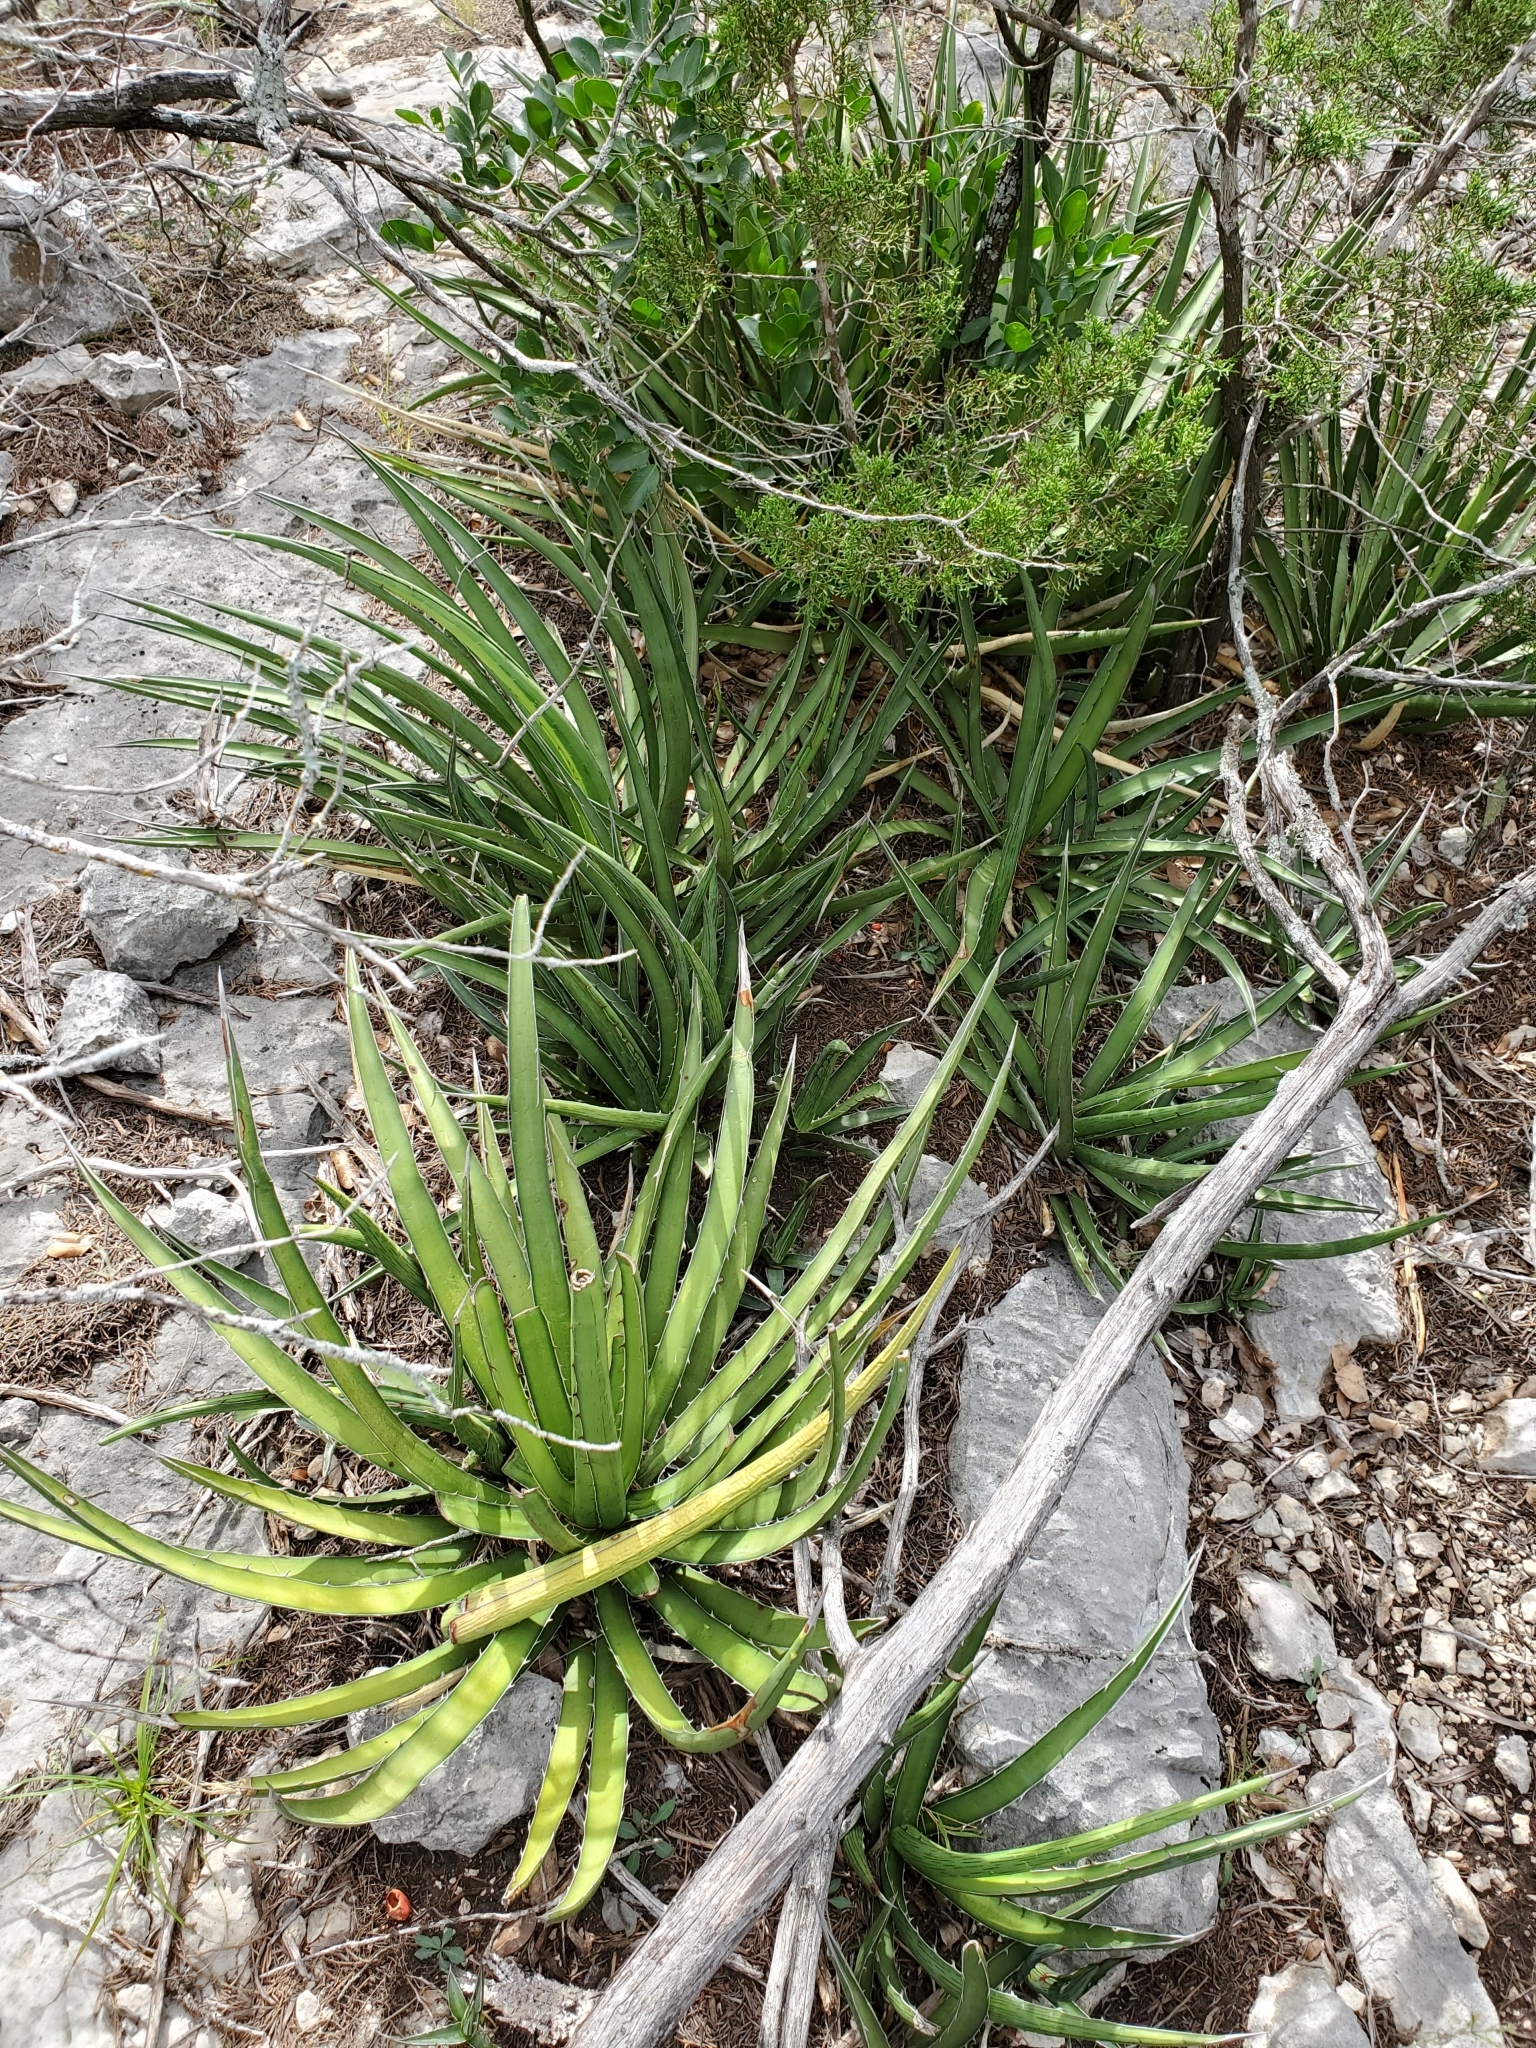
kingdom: Plantae
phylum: Tracheophyta
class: Liliopsida
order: Asparagales
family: Asparagaceae
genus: Agave
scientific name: Agave lechuguilla
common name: Lecheguilla agave
